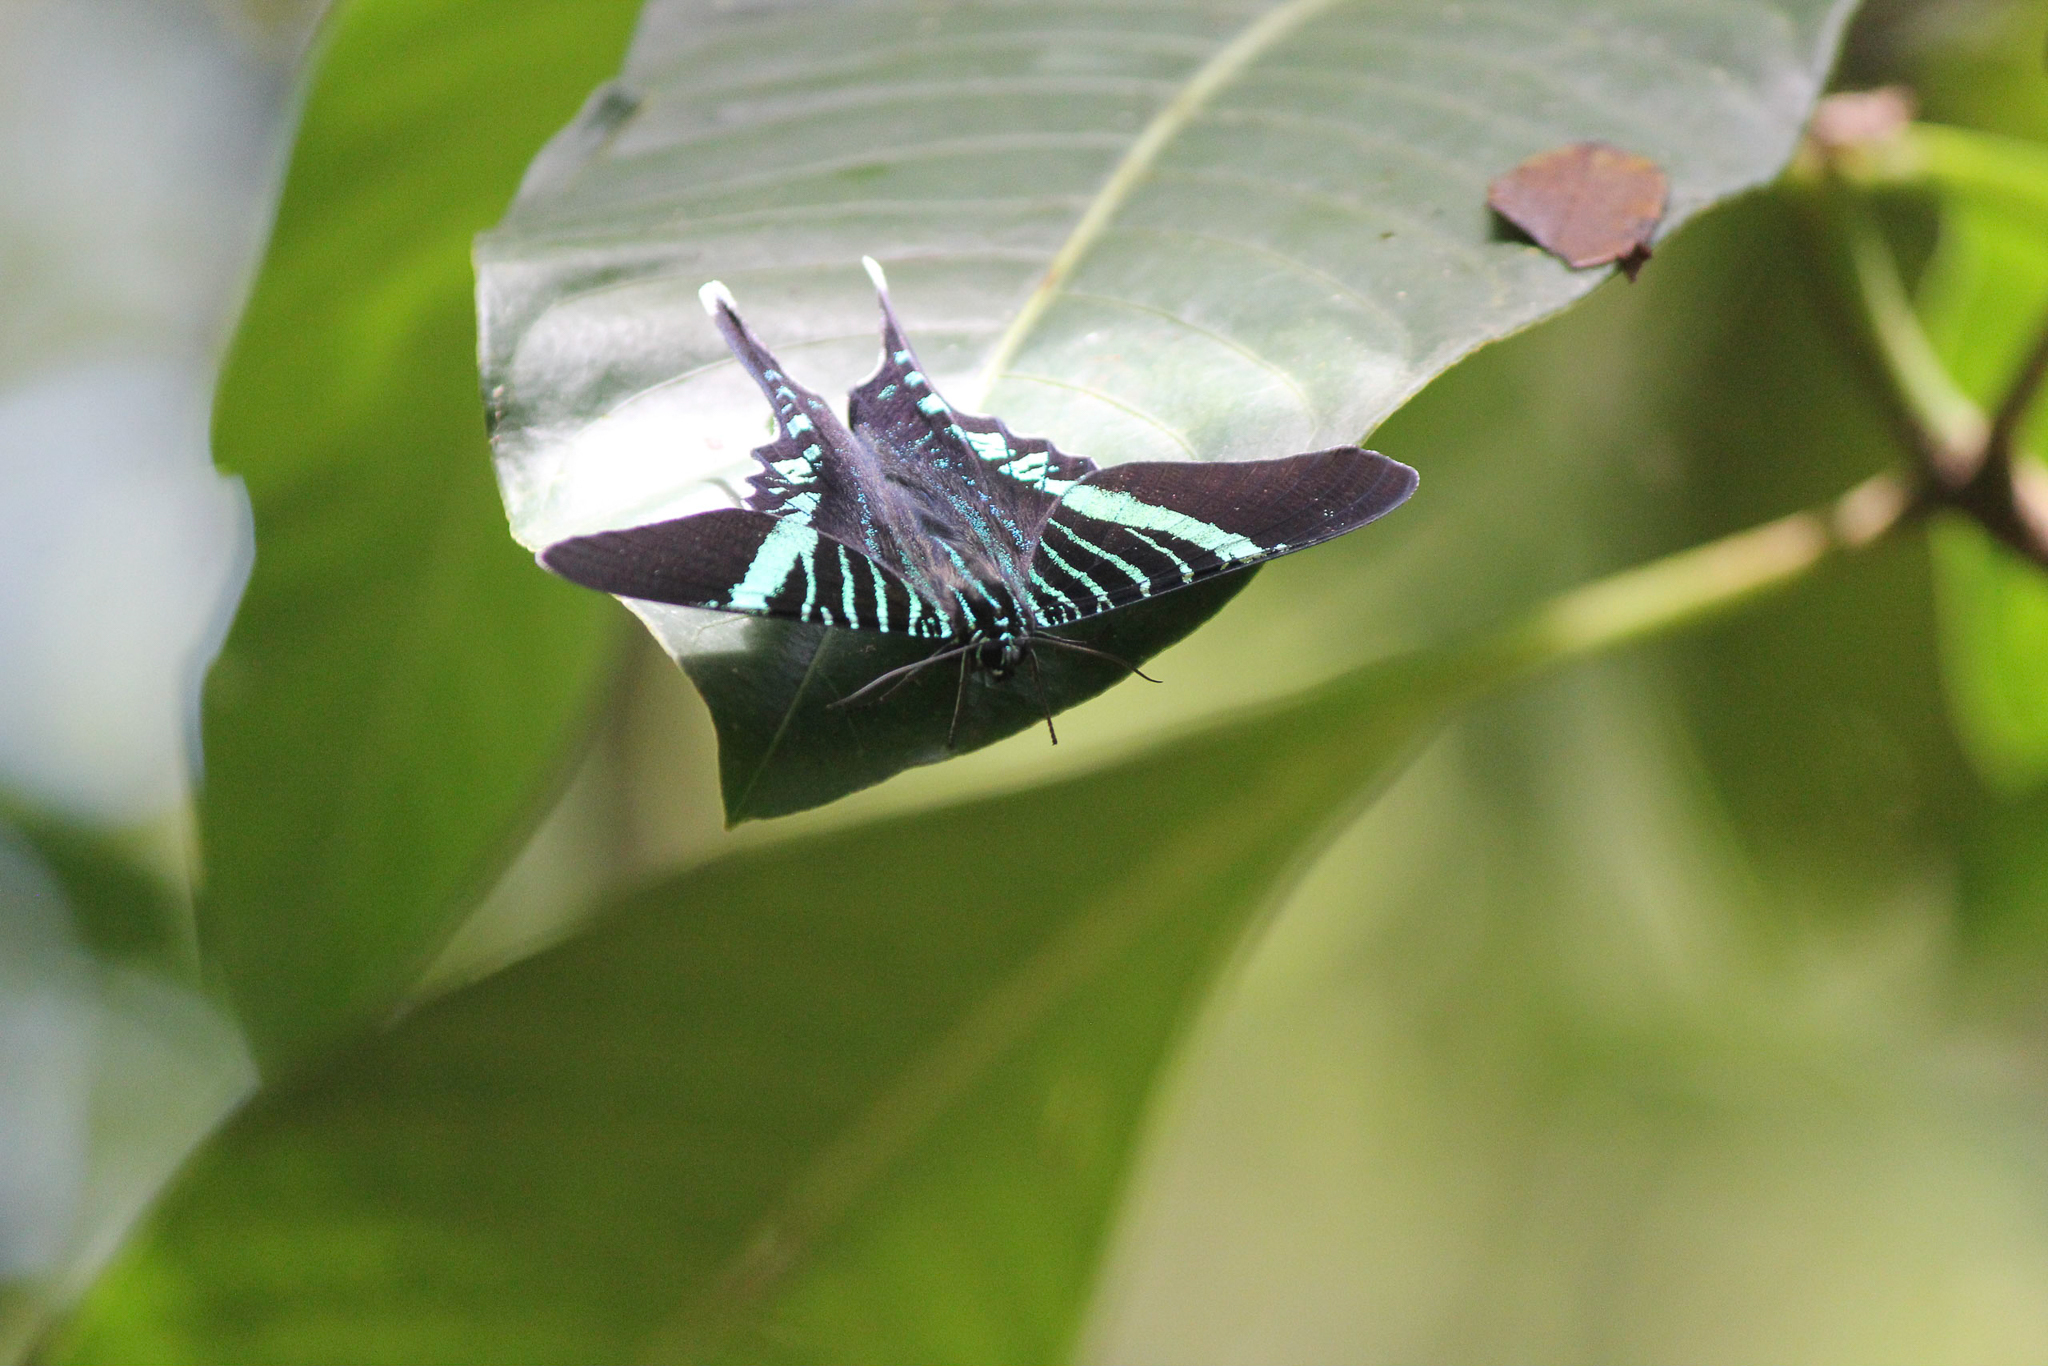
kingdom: Animalia
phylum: Arthropoda
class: Insecta
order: Lepidoptera
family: Uraniidae
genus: Urania
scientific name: Urania fulgens
